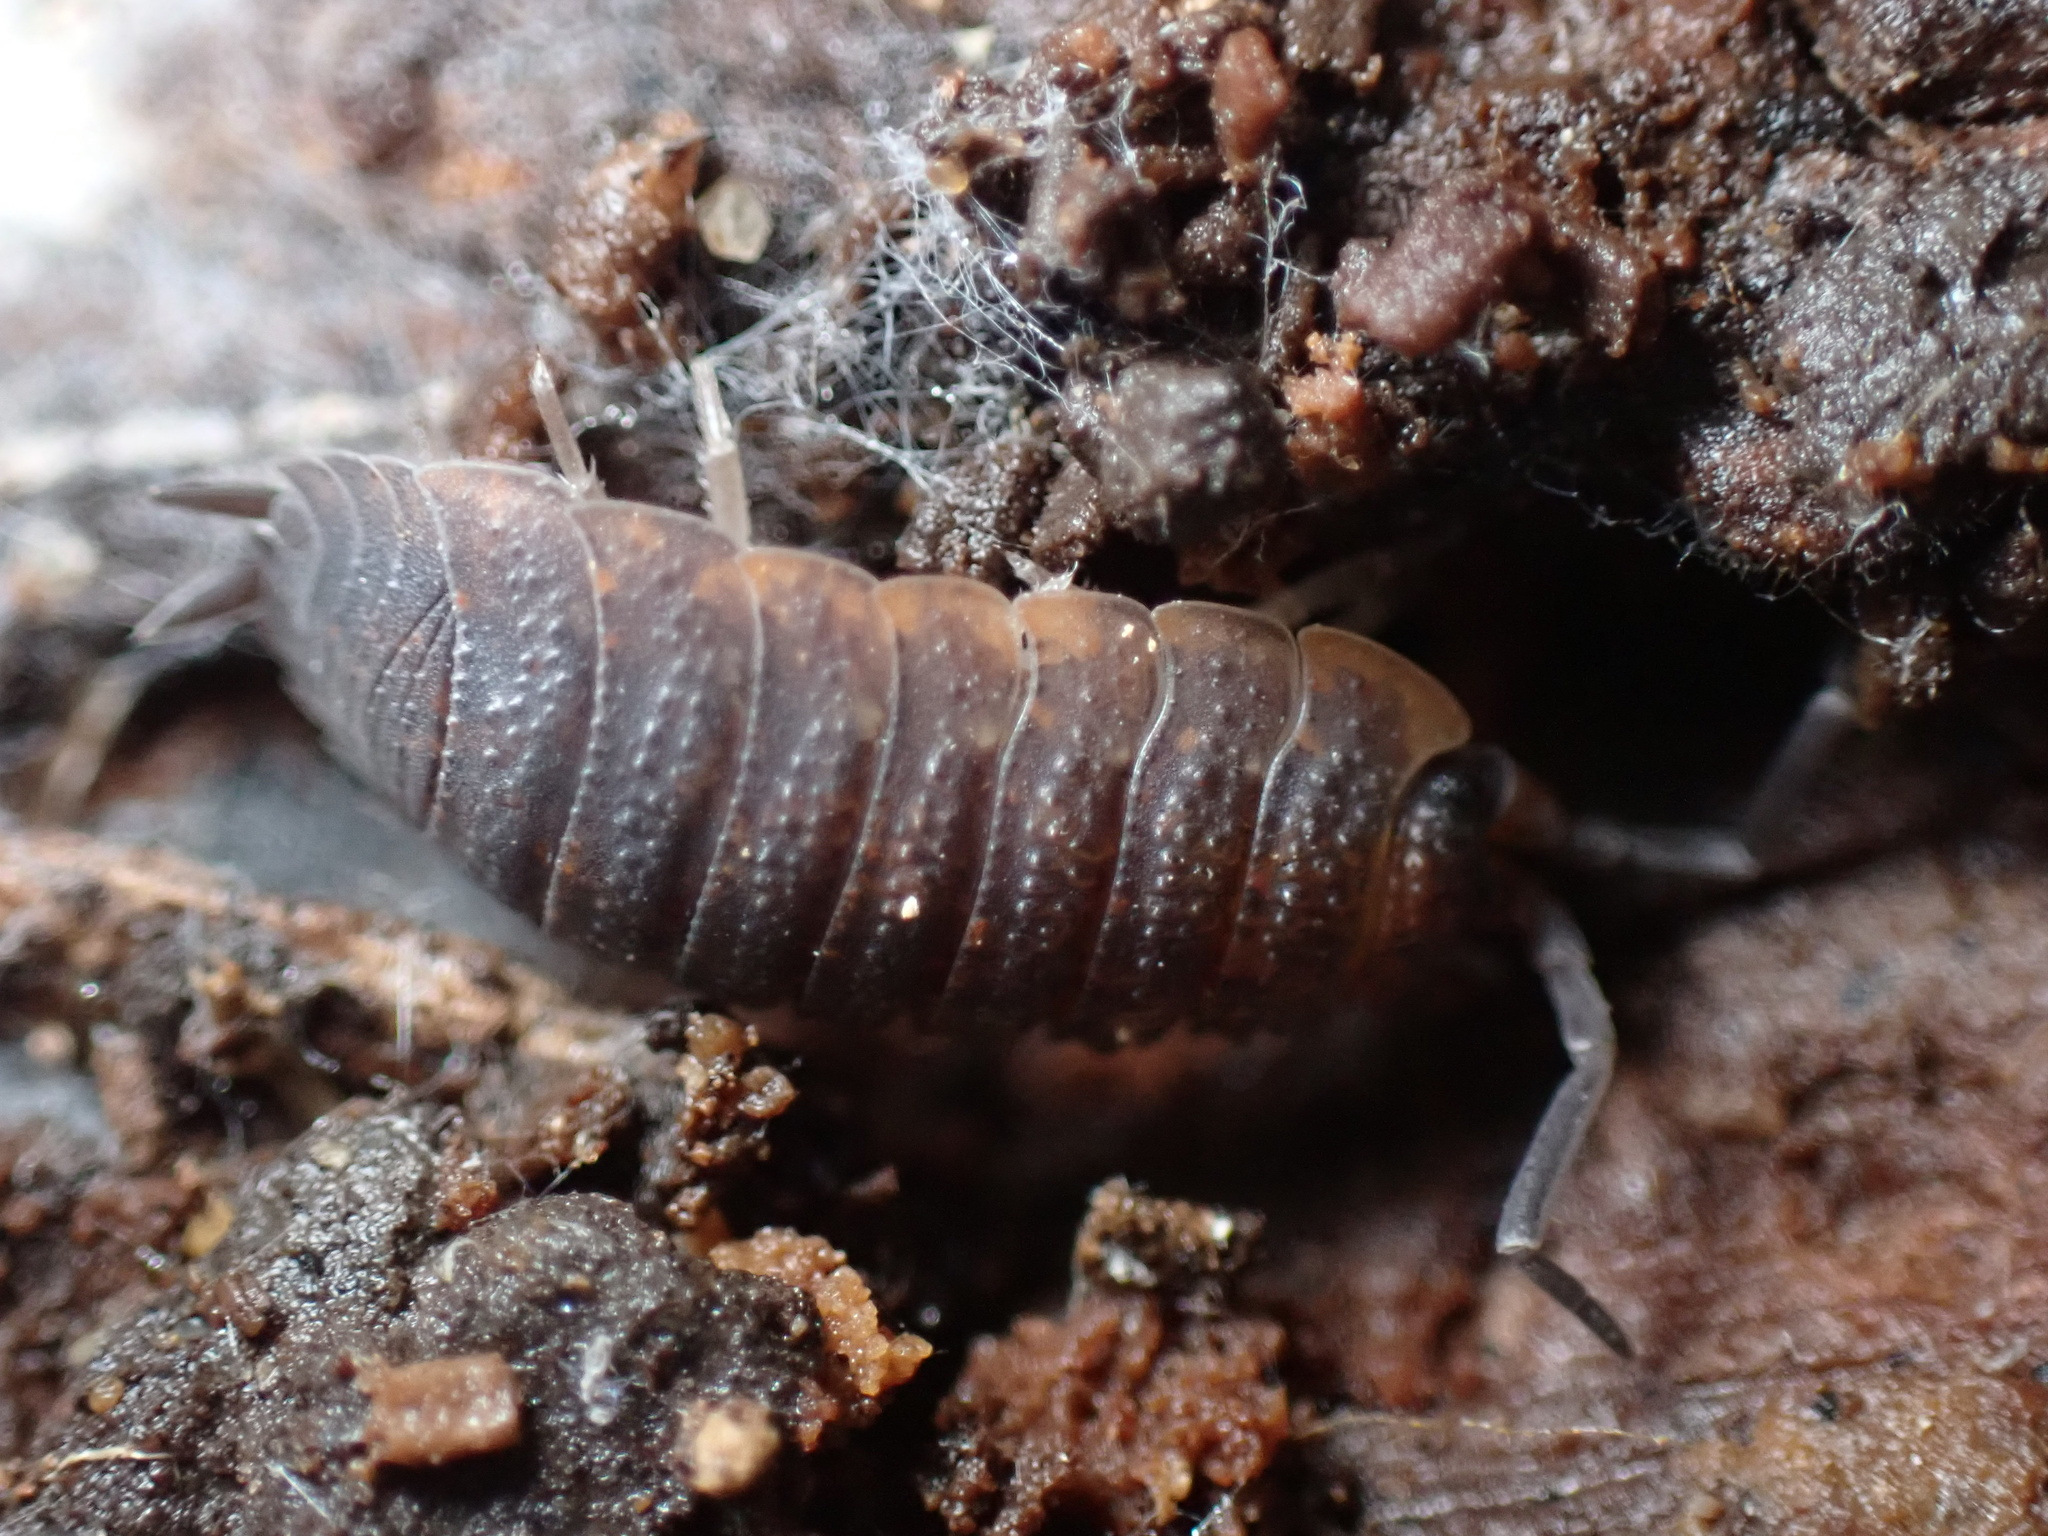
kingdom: Animalia
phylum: Arthropoda
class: Malacostraca
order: Isopoda
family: Porcellionidae
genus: Porcellio
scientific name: Porcellio scaber
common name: Common rough woodlouse
